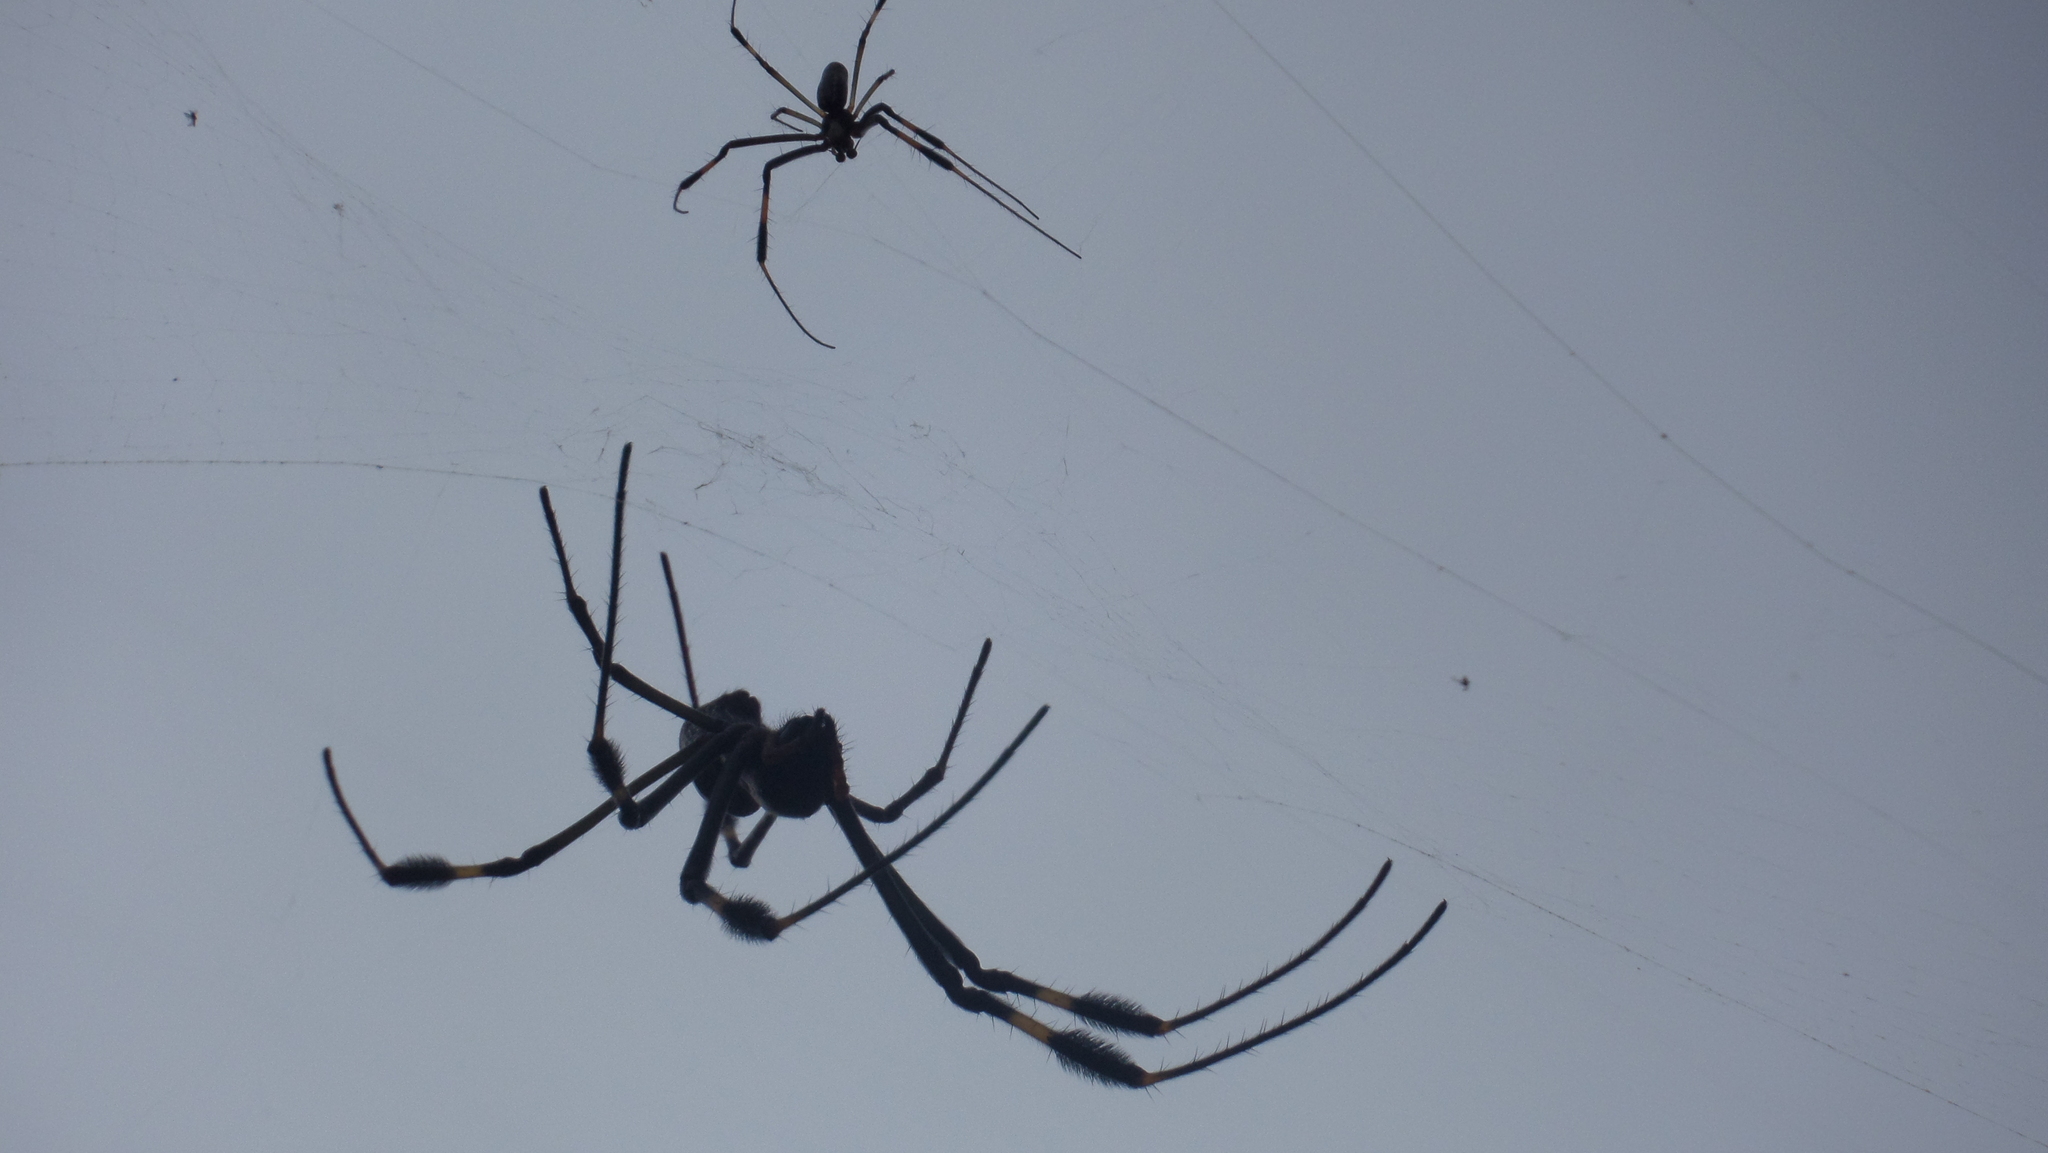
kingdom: Animalia
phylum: Arthropoda
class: Arachnida
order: Araneae
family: Araneidae
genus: Trichonephila
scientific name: Trichonephila clavipes
